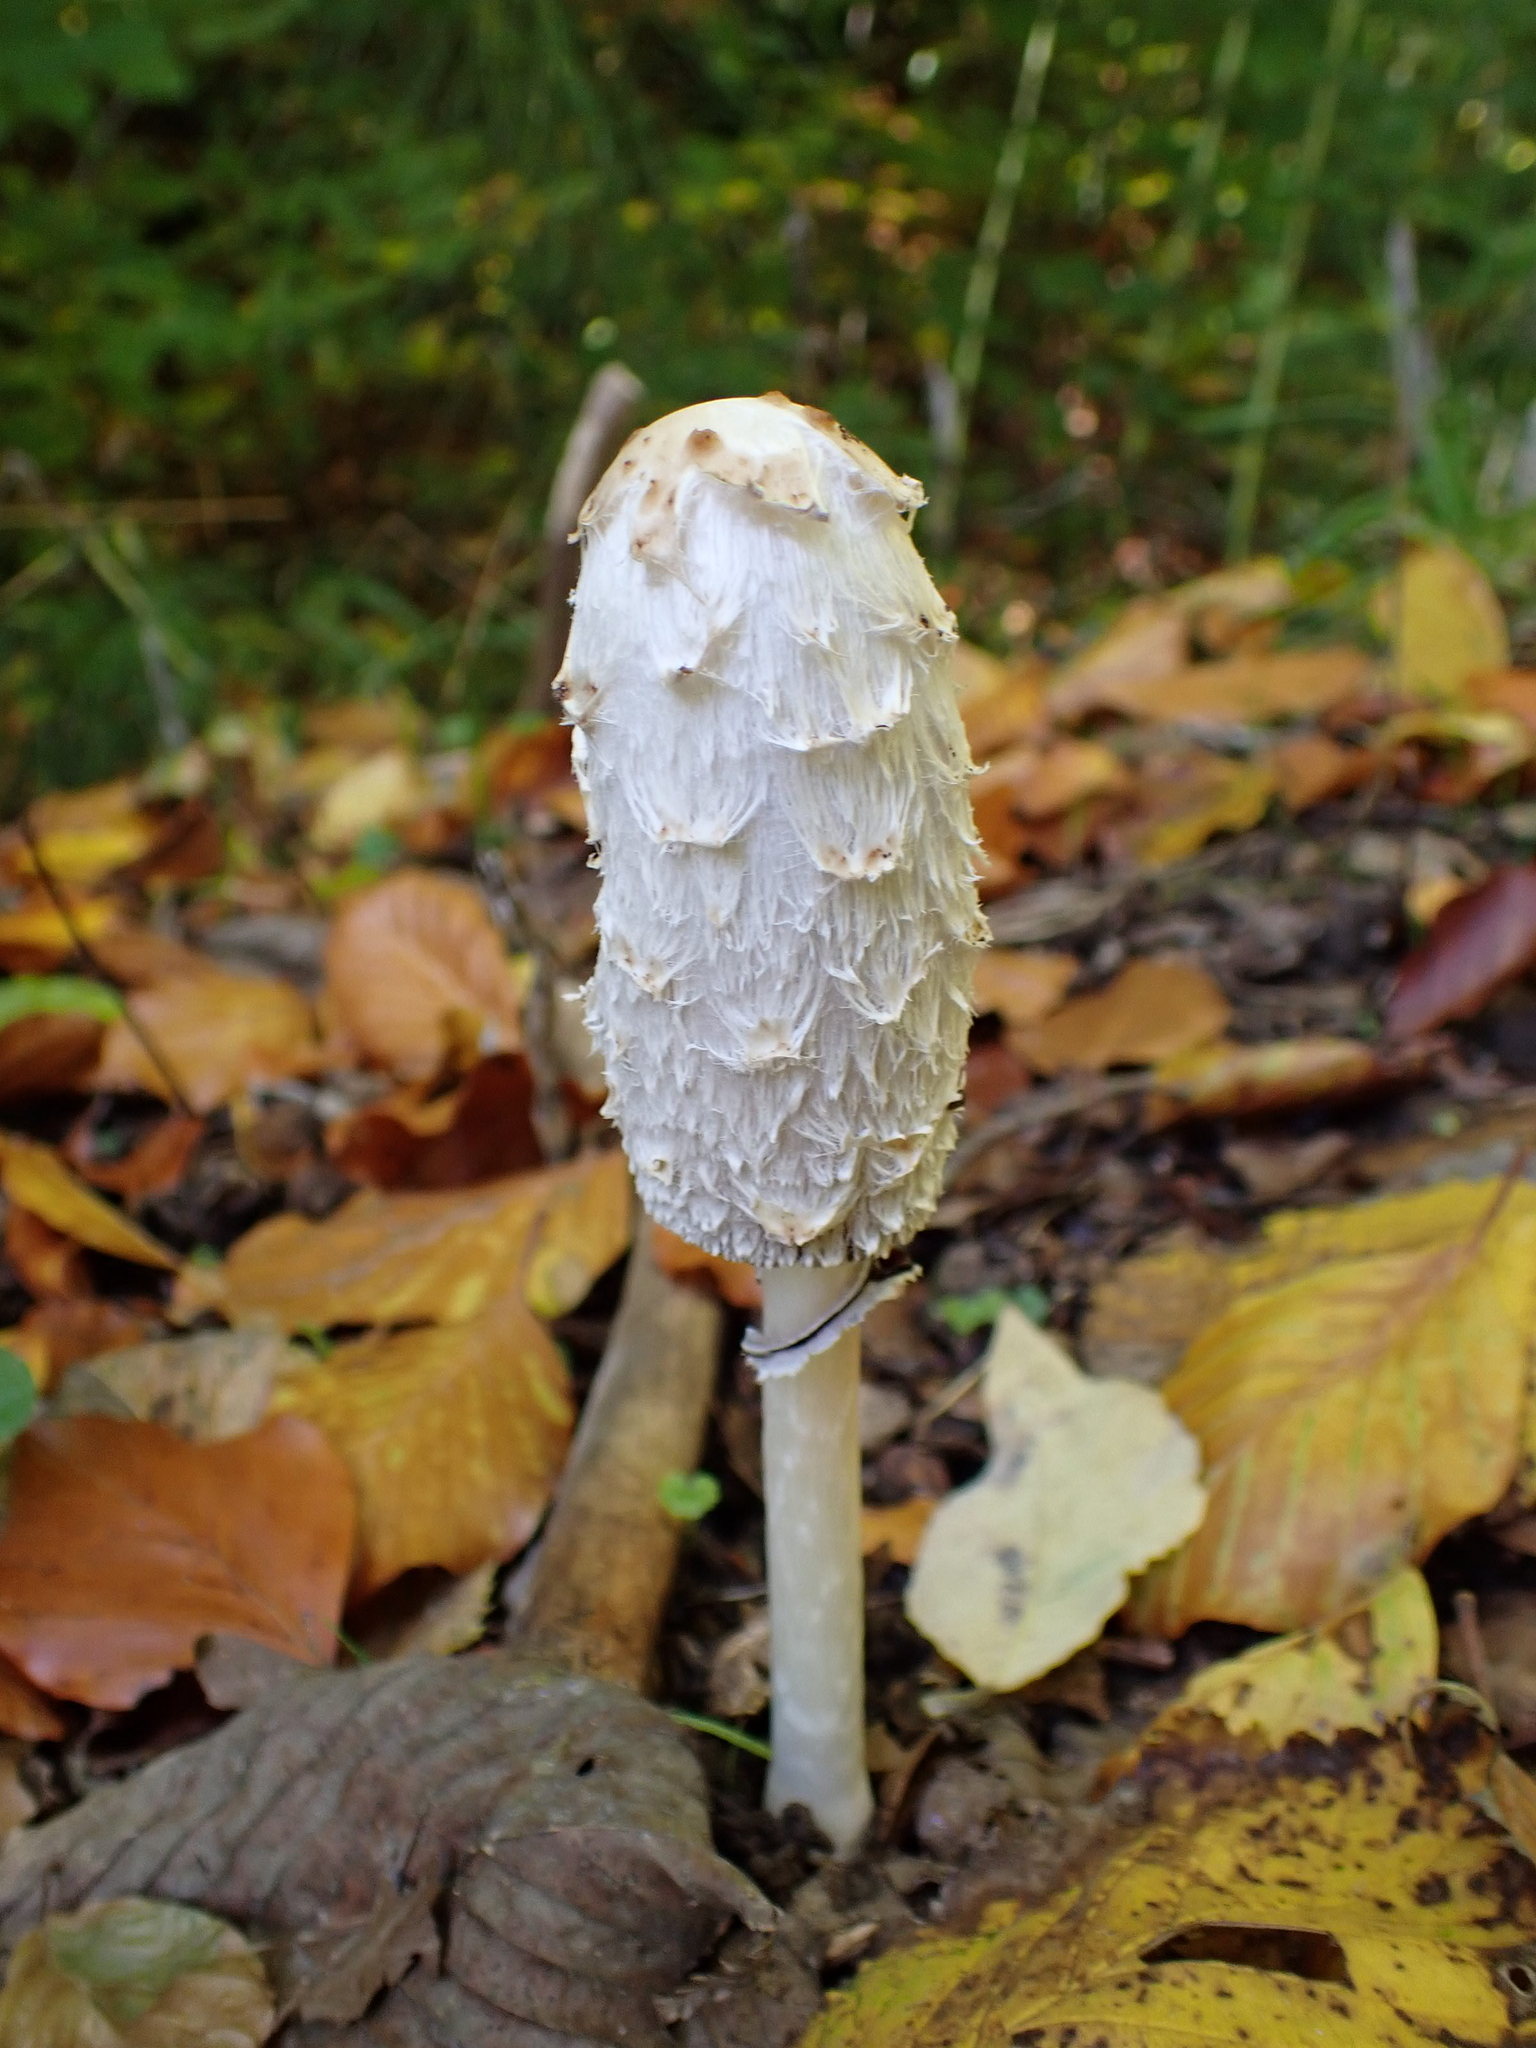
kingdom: Fungi
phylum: Basidiomycota
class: Agaricomycetes
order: Agaricales
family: Agaricaceae
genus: Coprinus
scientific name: Coprinus comatus
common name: Lawyer's wig
